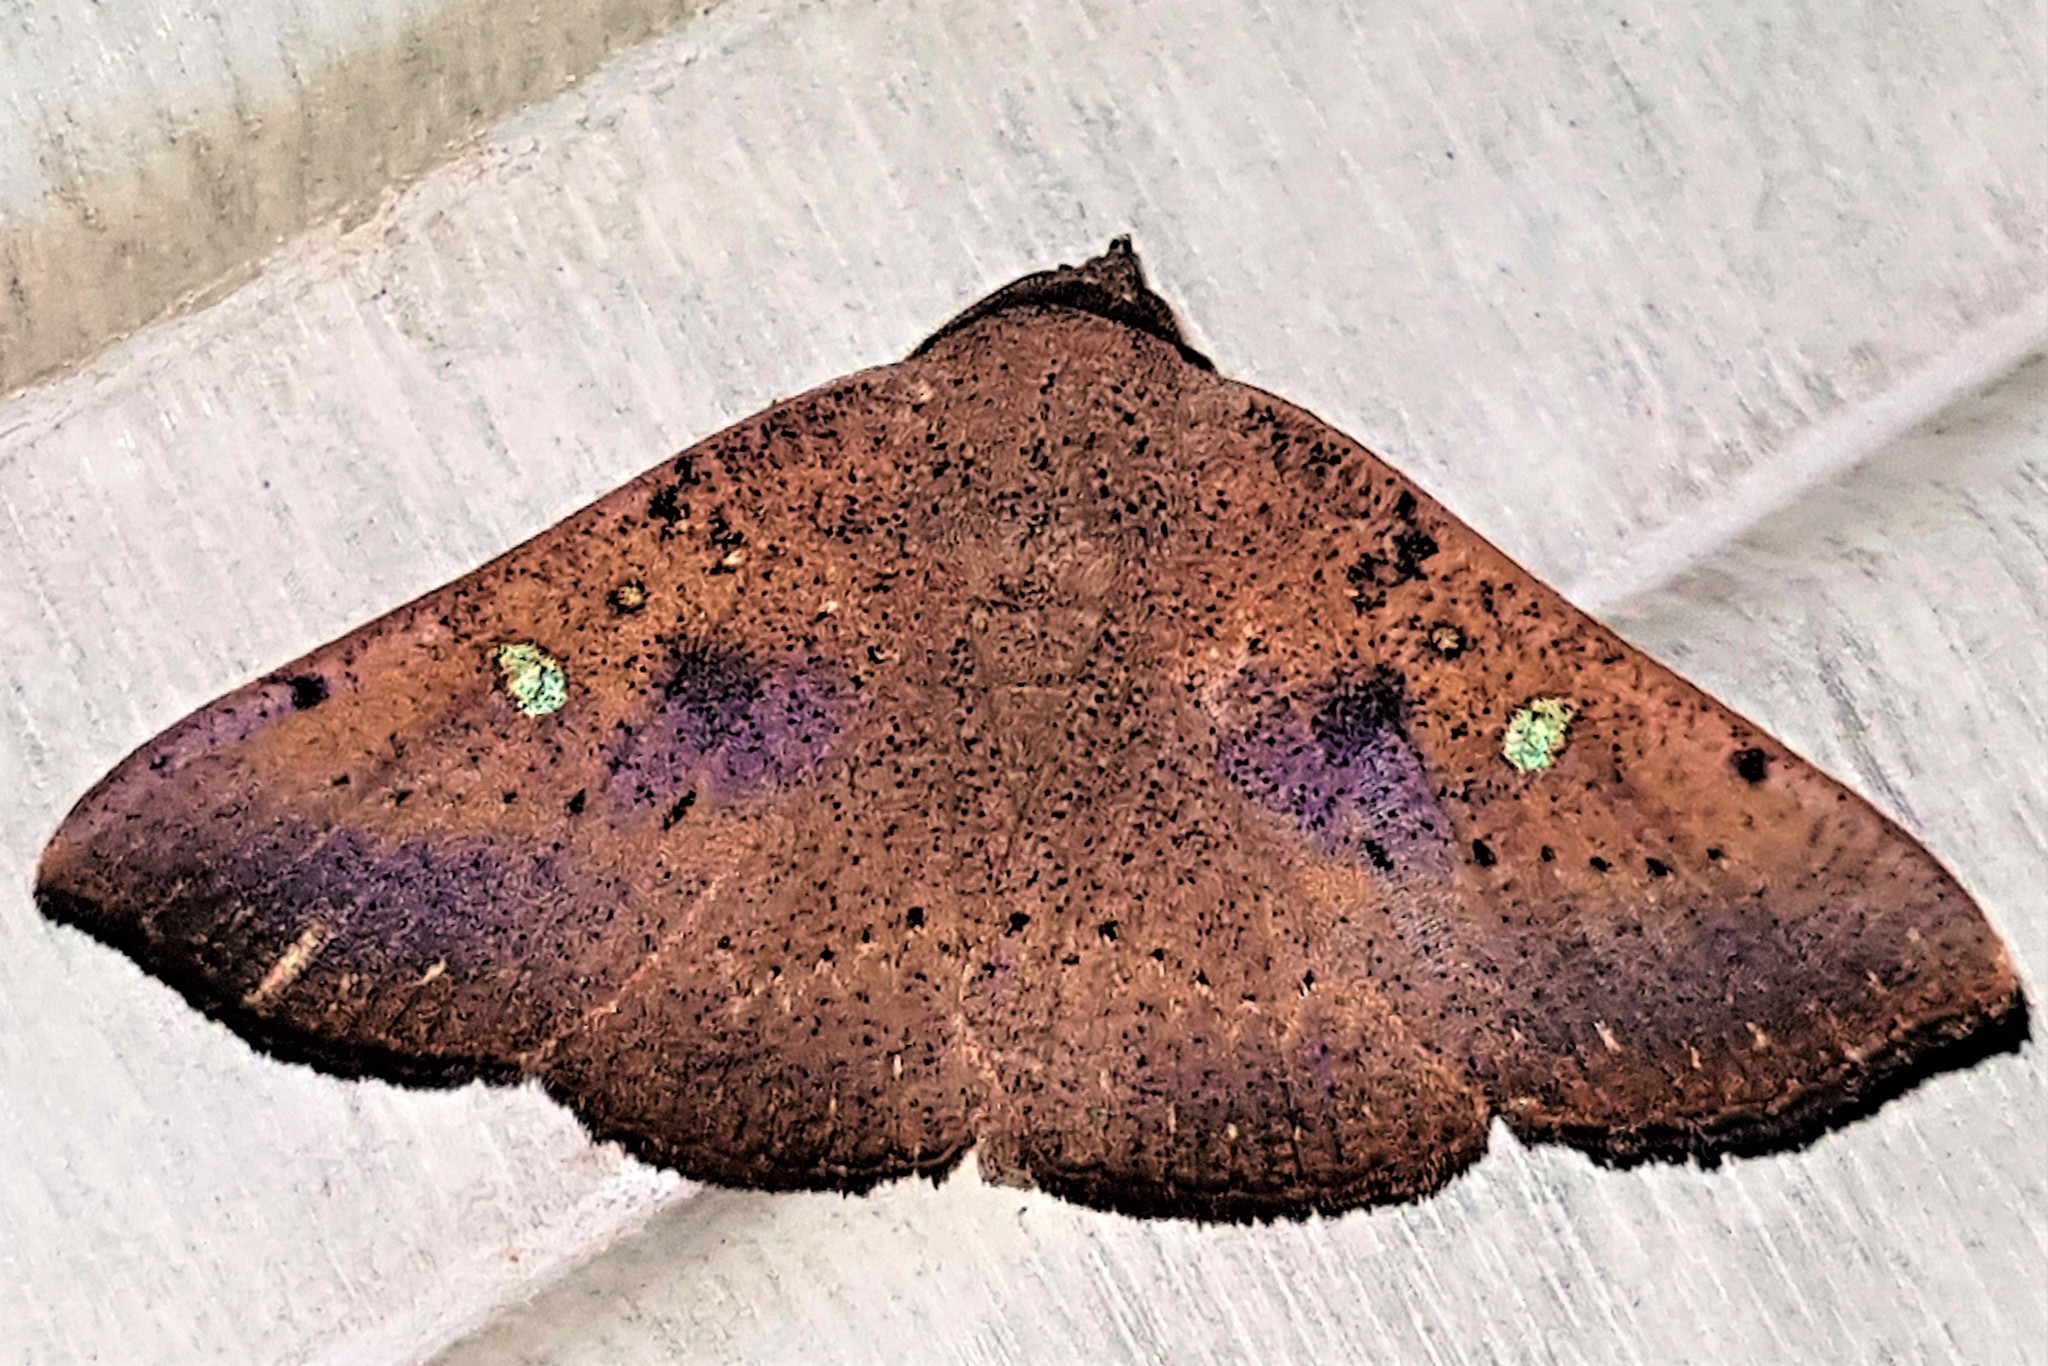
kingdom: Animalia
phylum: Arthropoda
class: Insecta
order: Lepidoptera
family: Erebidae
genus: Obroatis
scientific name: Obroatis chloropis
